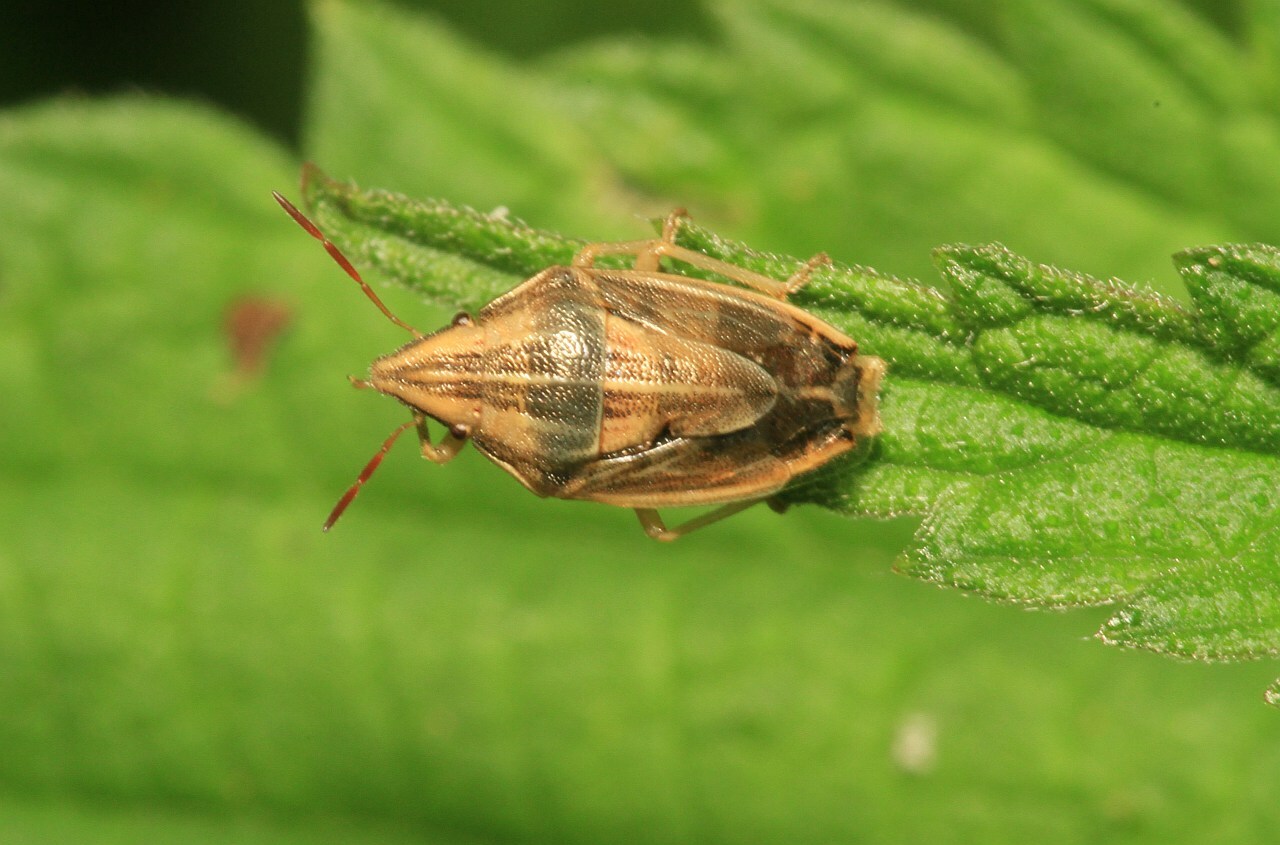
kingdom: Animalia
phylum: Arthropoda
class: Insecta
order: Hemiptera
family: Pentatomidae
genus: Aelia
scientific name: Aelia acuminata
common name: Bishop's mitre
